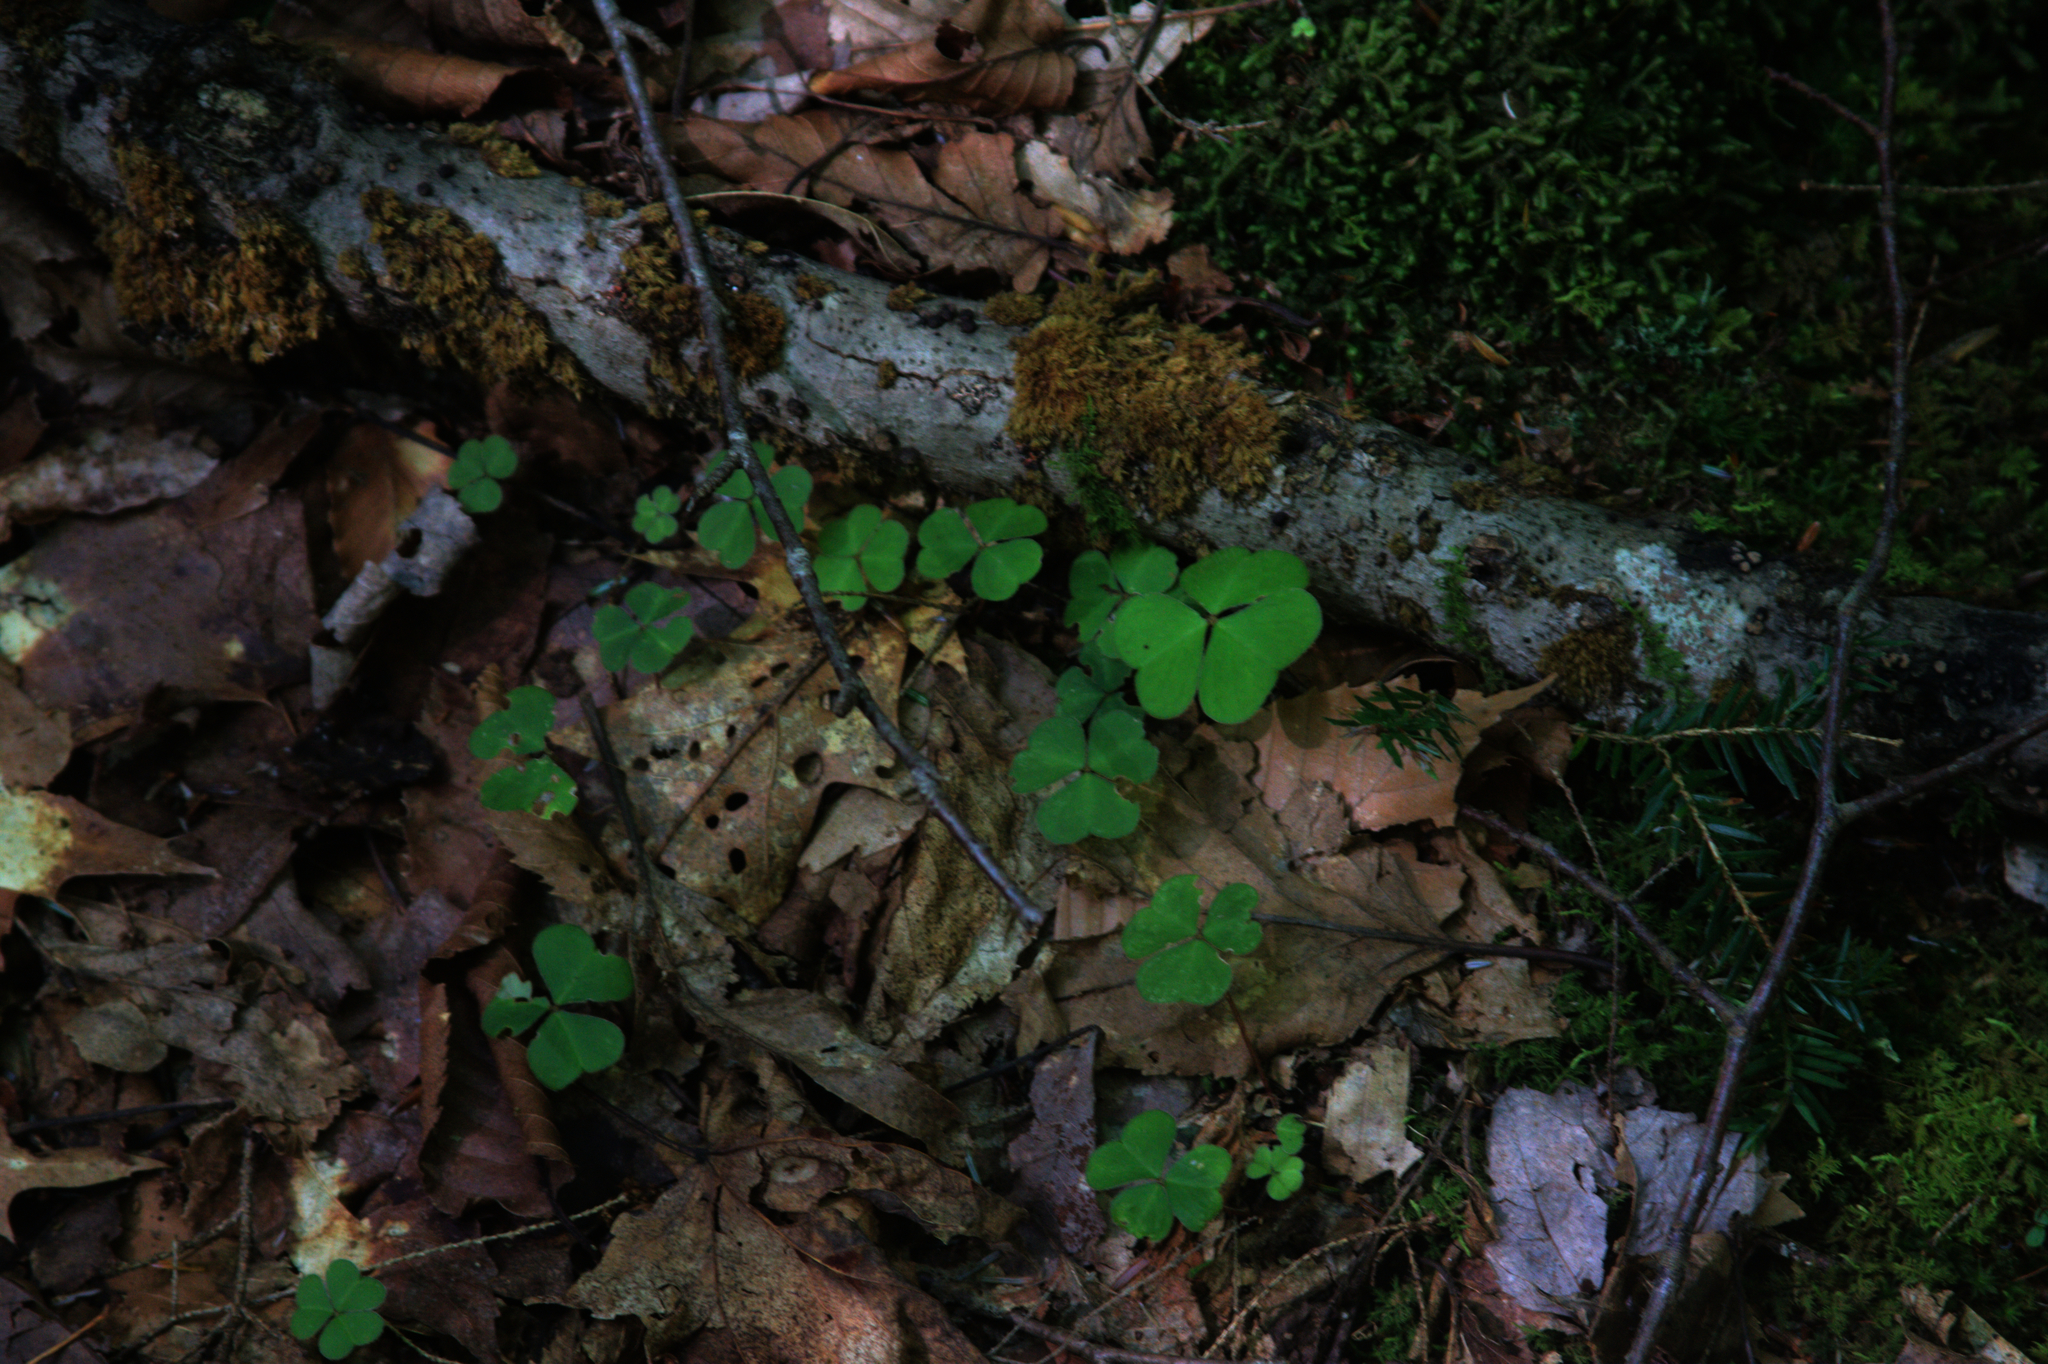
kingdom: Plantae
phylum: Tracheophyta
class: Magnoliopsida
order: Oxalidales
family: Oxalidaceae
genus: Oxalis
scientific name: Oxalis montana
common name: American wood-sorrel
